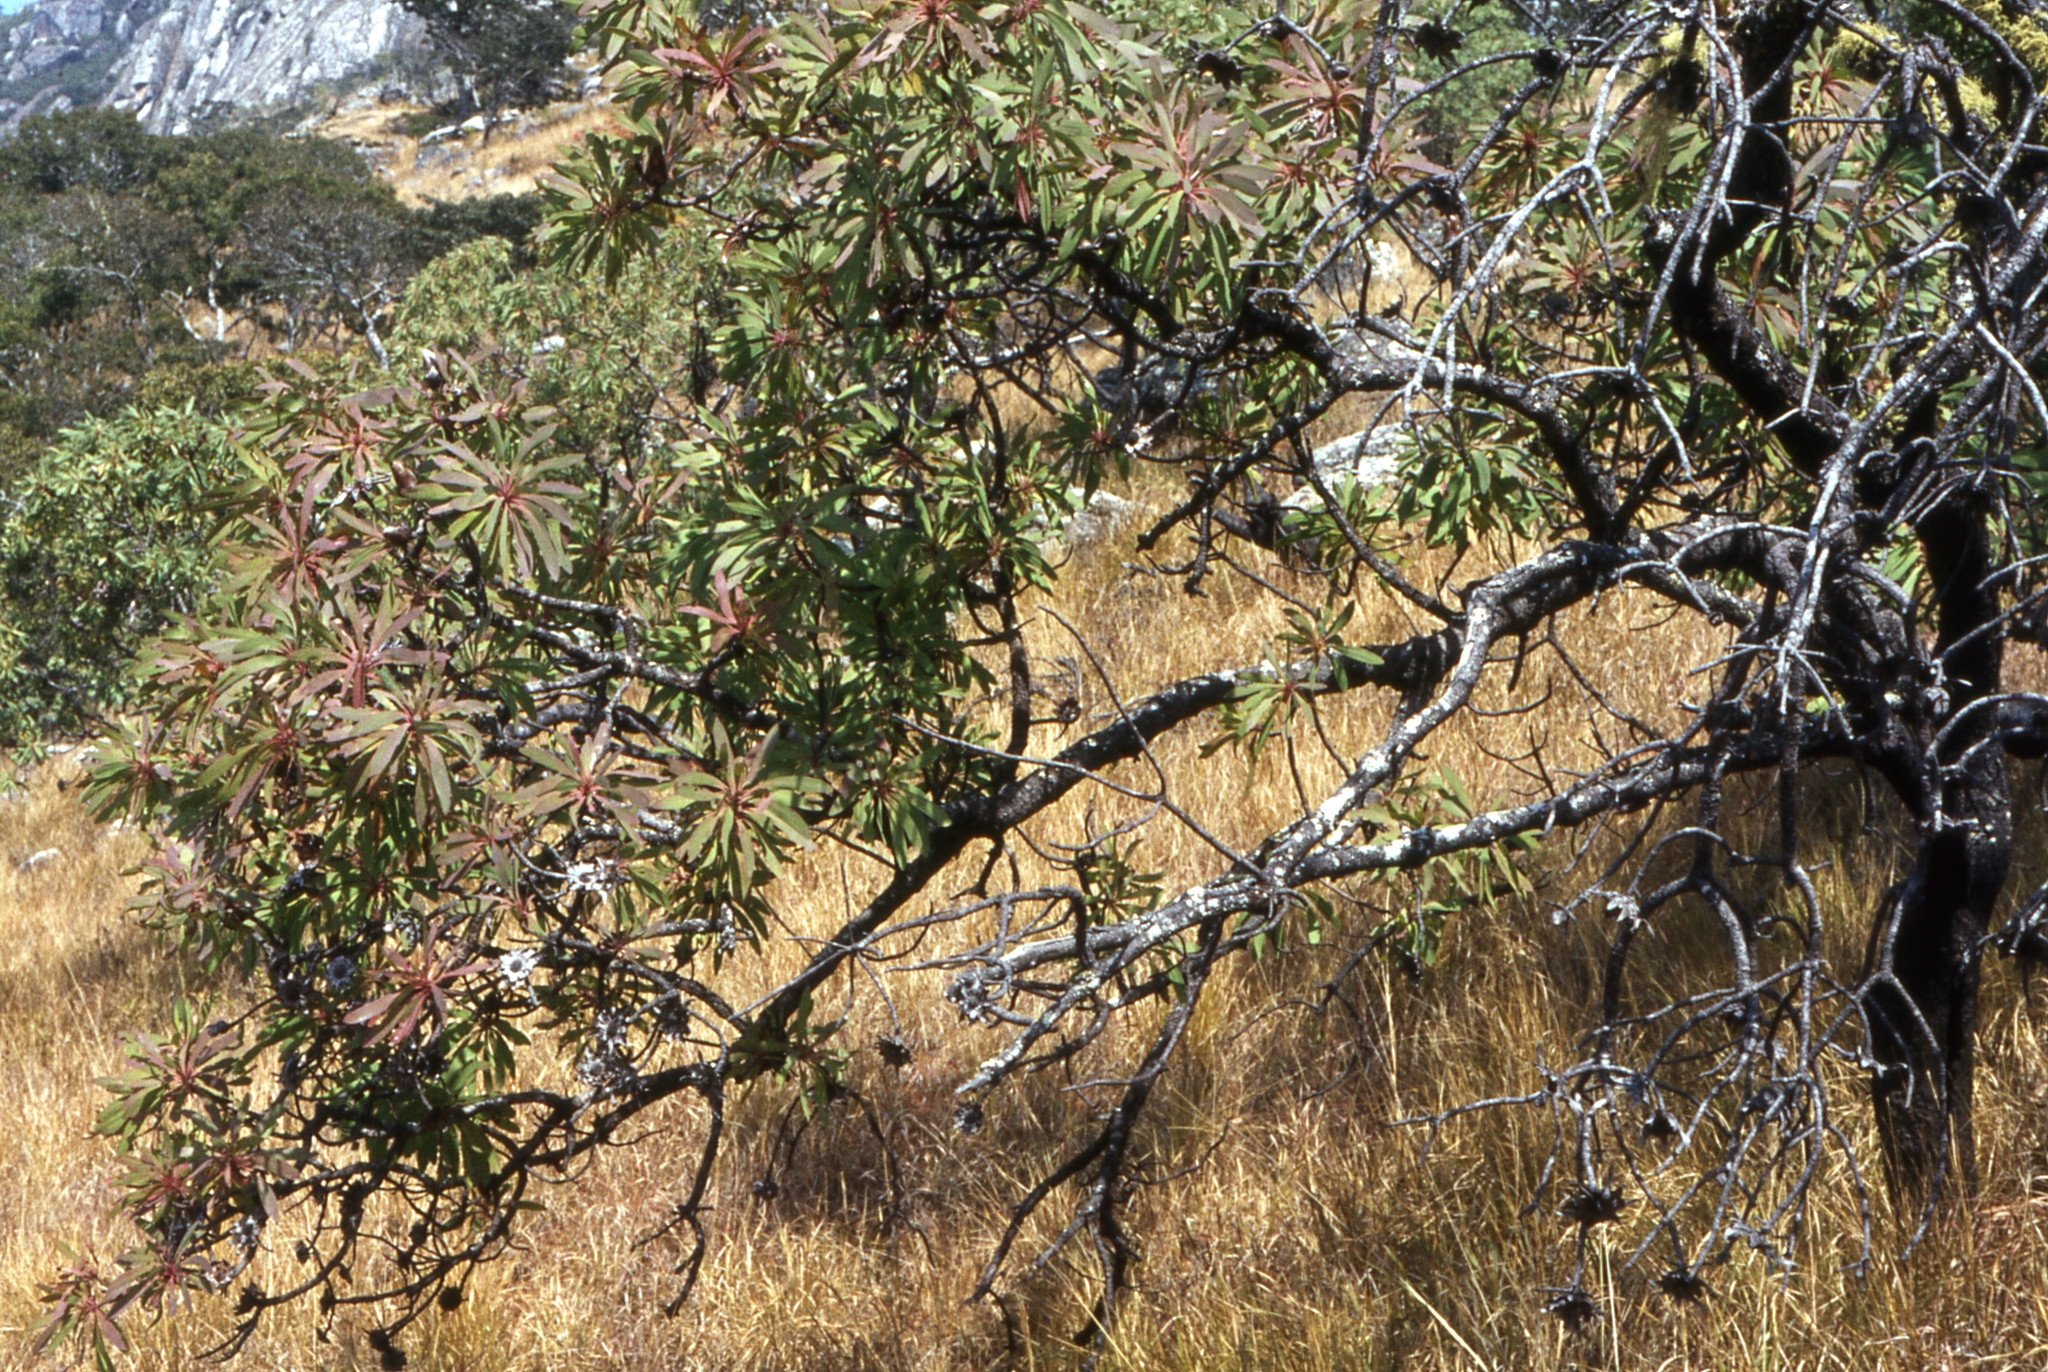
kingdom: Plantae
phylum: Tracheophyta
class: Magnoliopsida
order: Proteales
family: Proteaceae
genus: Protea
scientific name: Protea petiolaris
